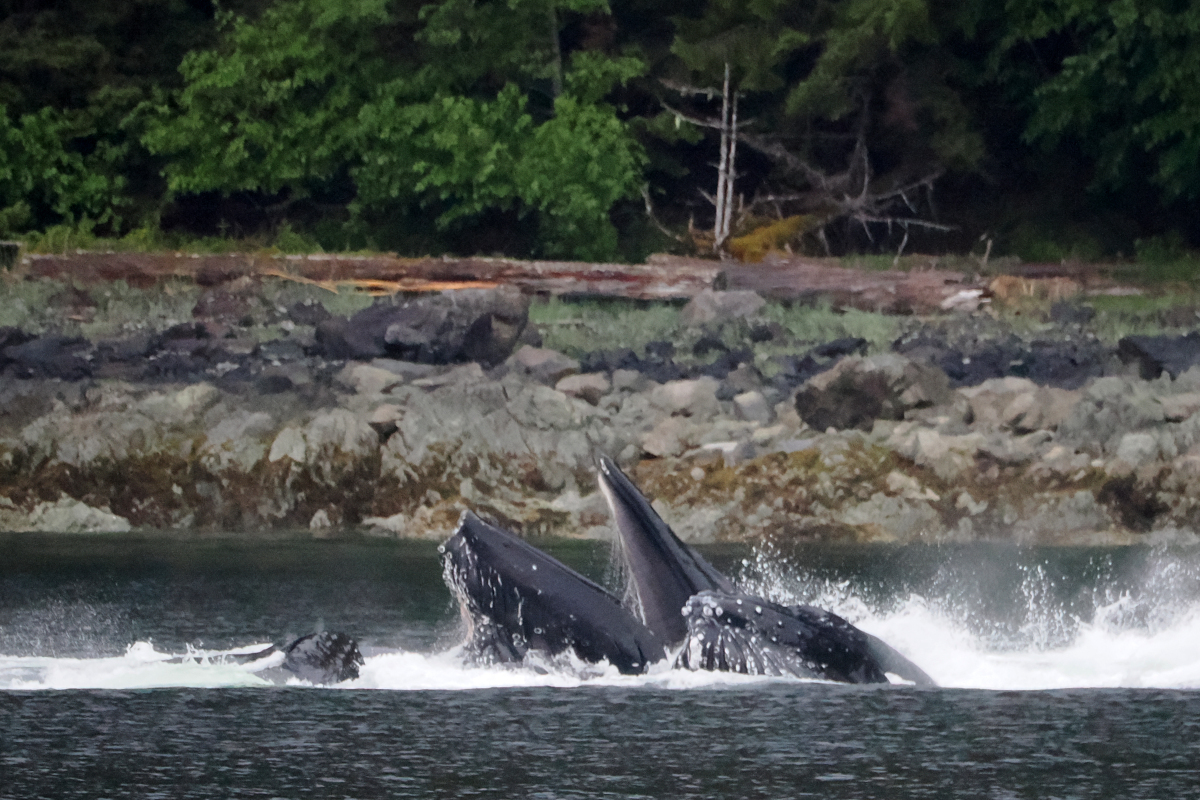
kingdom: Animalia
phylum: Chordata
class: Mammalia
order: Cetacea
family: Balaenopteridae
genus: Megaptera
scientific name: Megaptera novaeangliae
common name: Humpback whale
